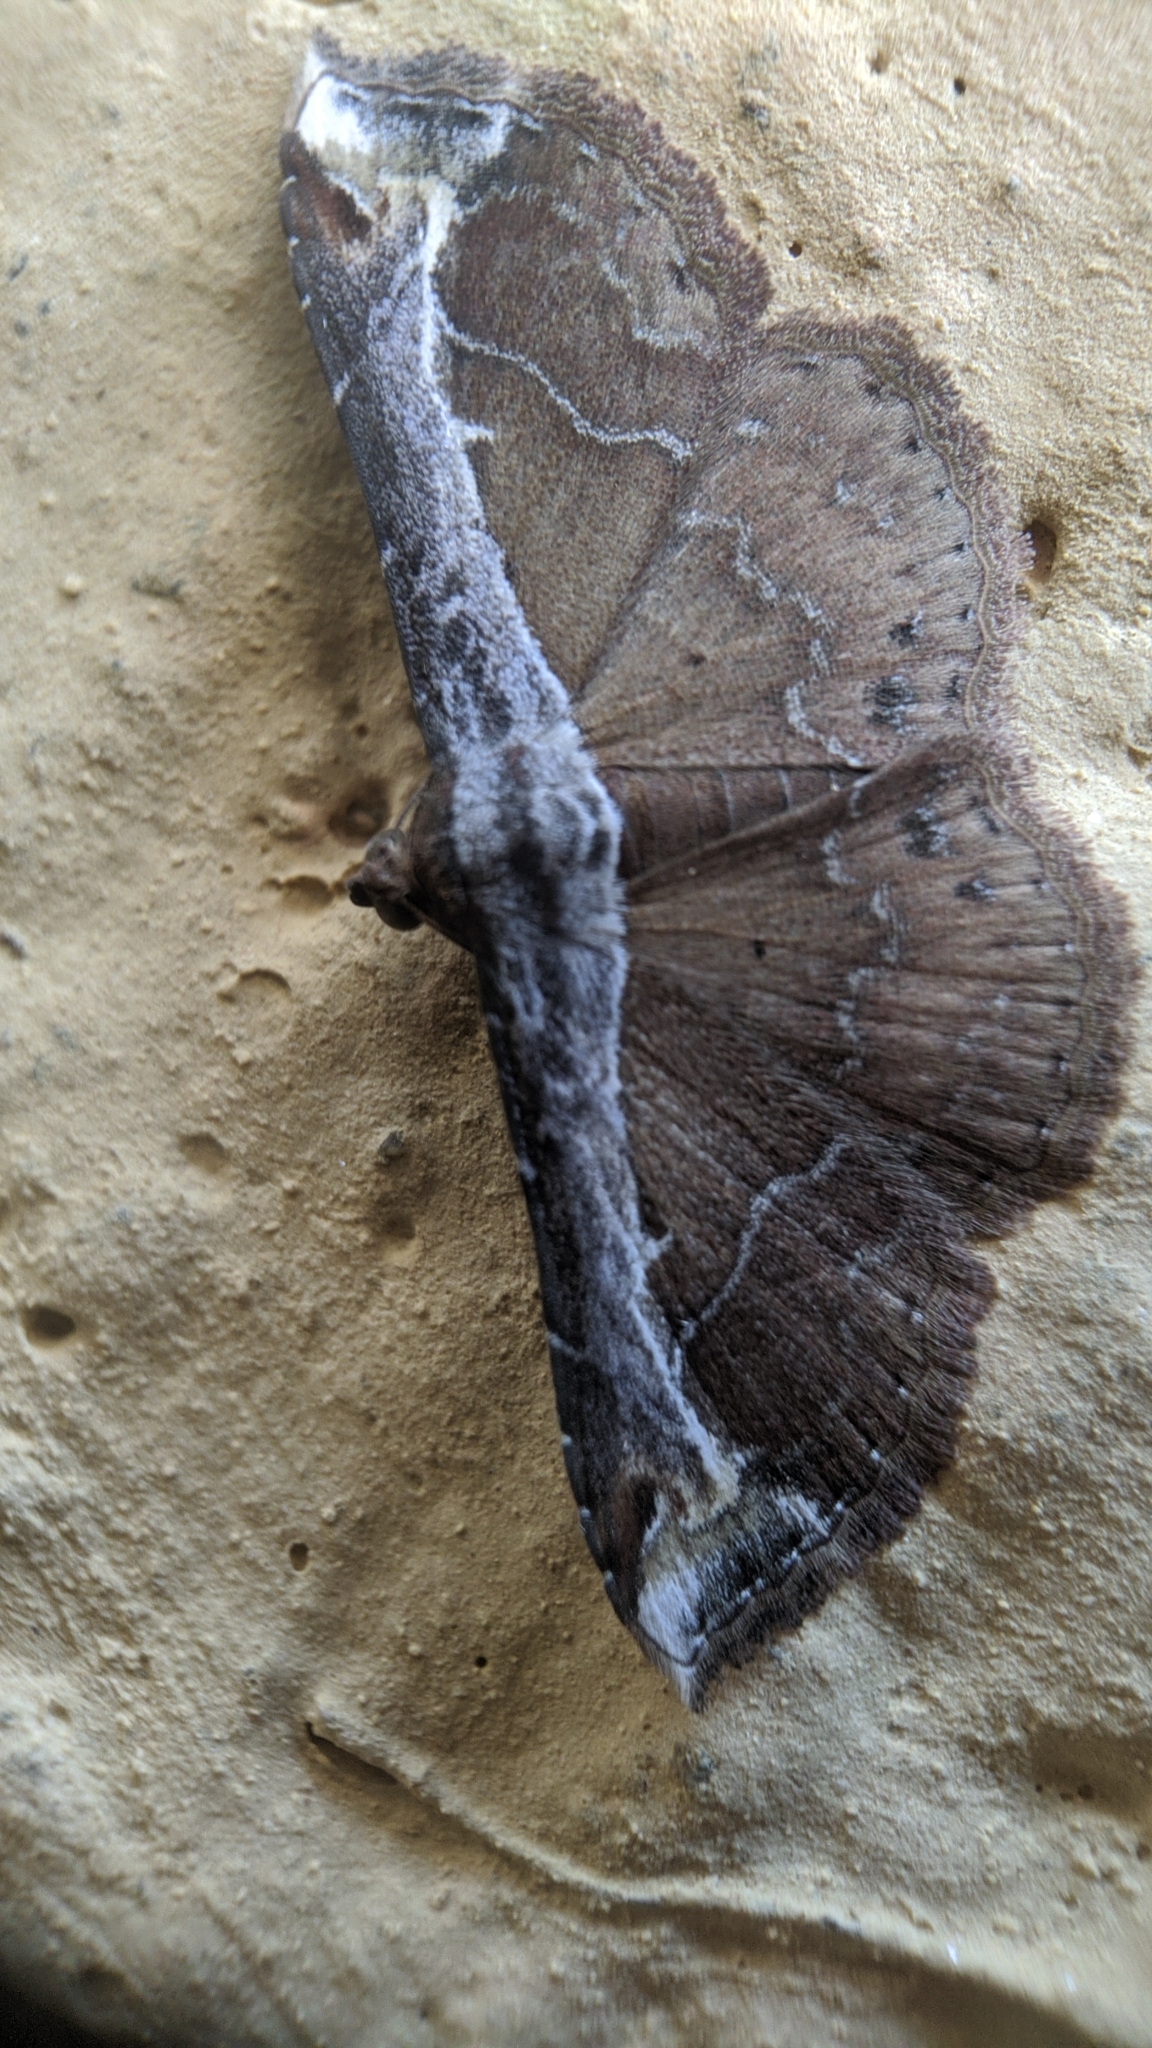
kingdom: Animalia
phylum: Arthropoda
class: Insecta
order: Lepidoptera
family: Erebidae
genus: Zurobata
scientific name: Zurobata vacillans
